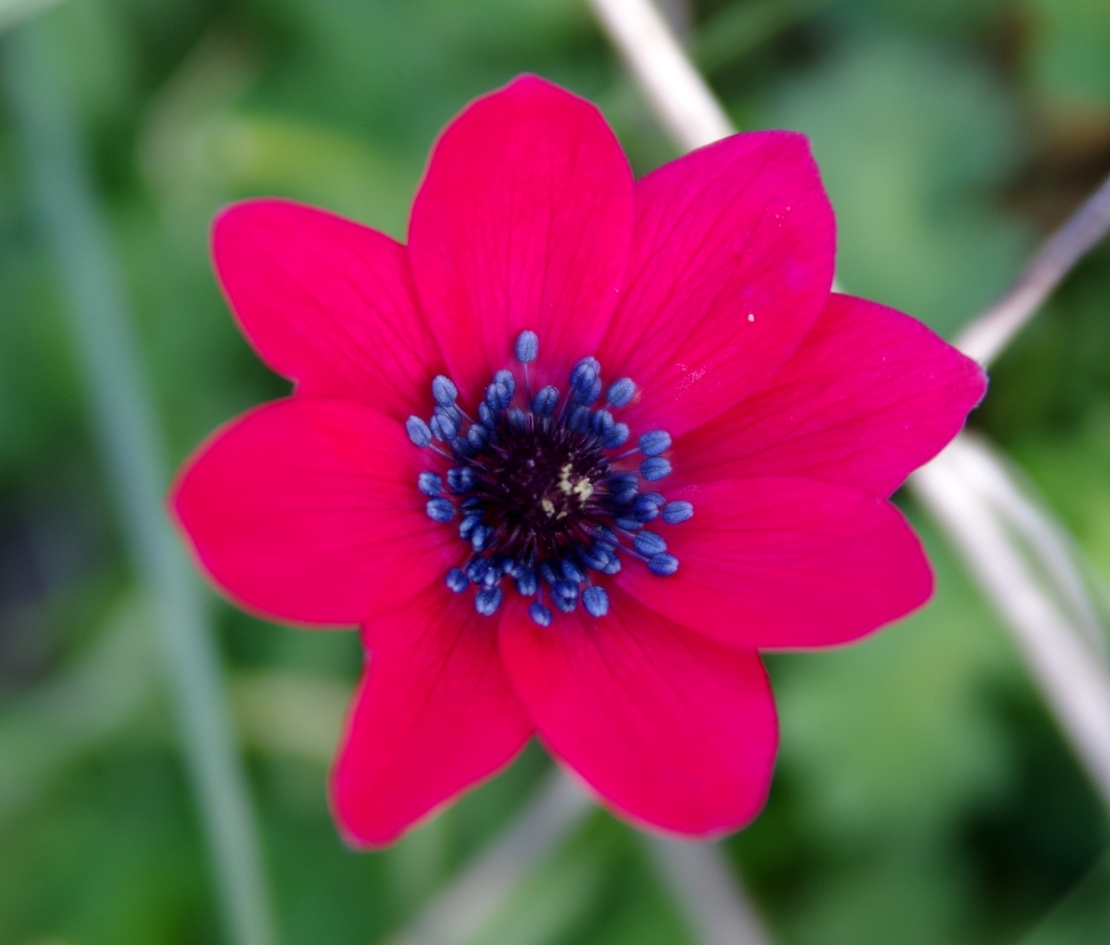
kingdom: Plantae
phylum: Tracheophyta
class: Magnoliopsida
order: Ranunculales
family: Ranunculaceae
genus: Anemone
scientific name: Anemone pavonina
